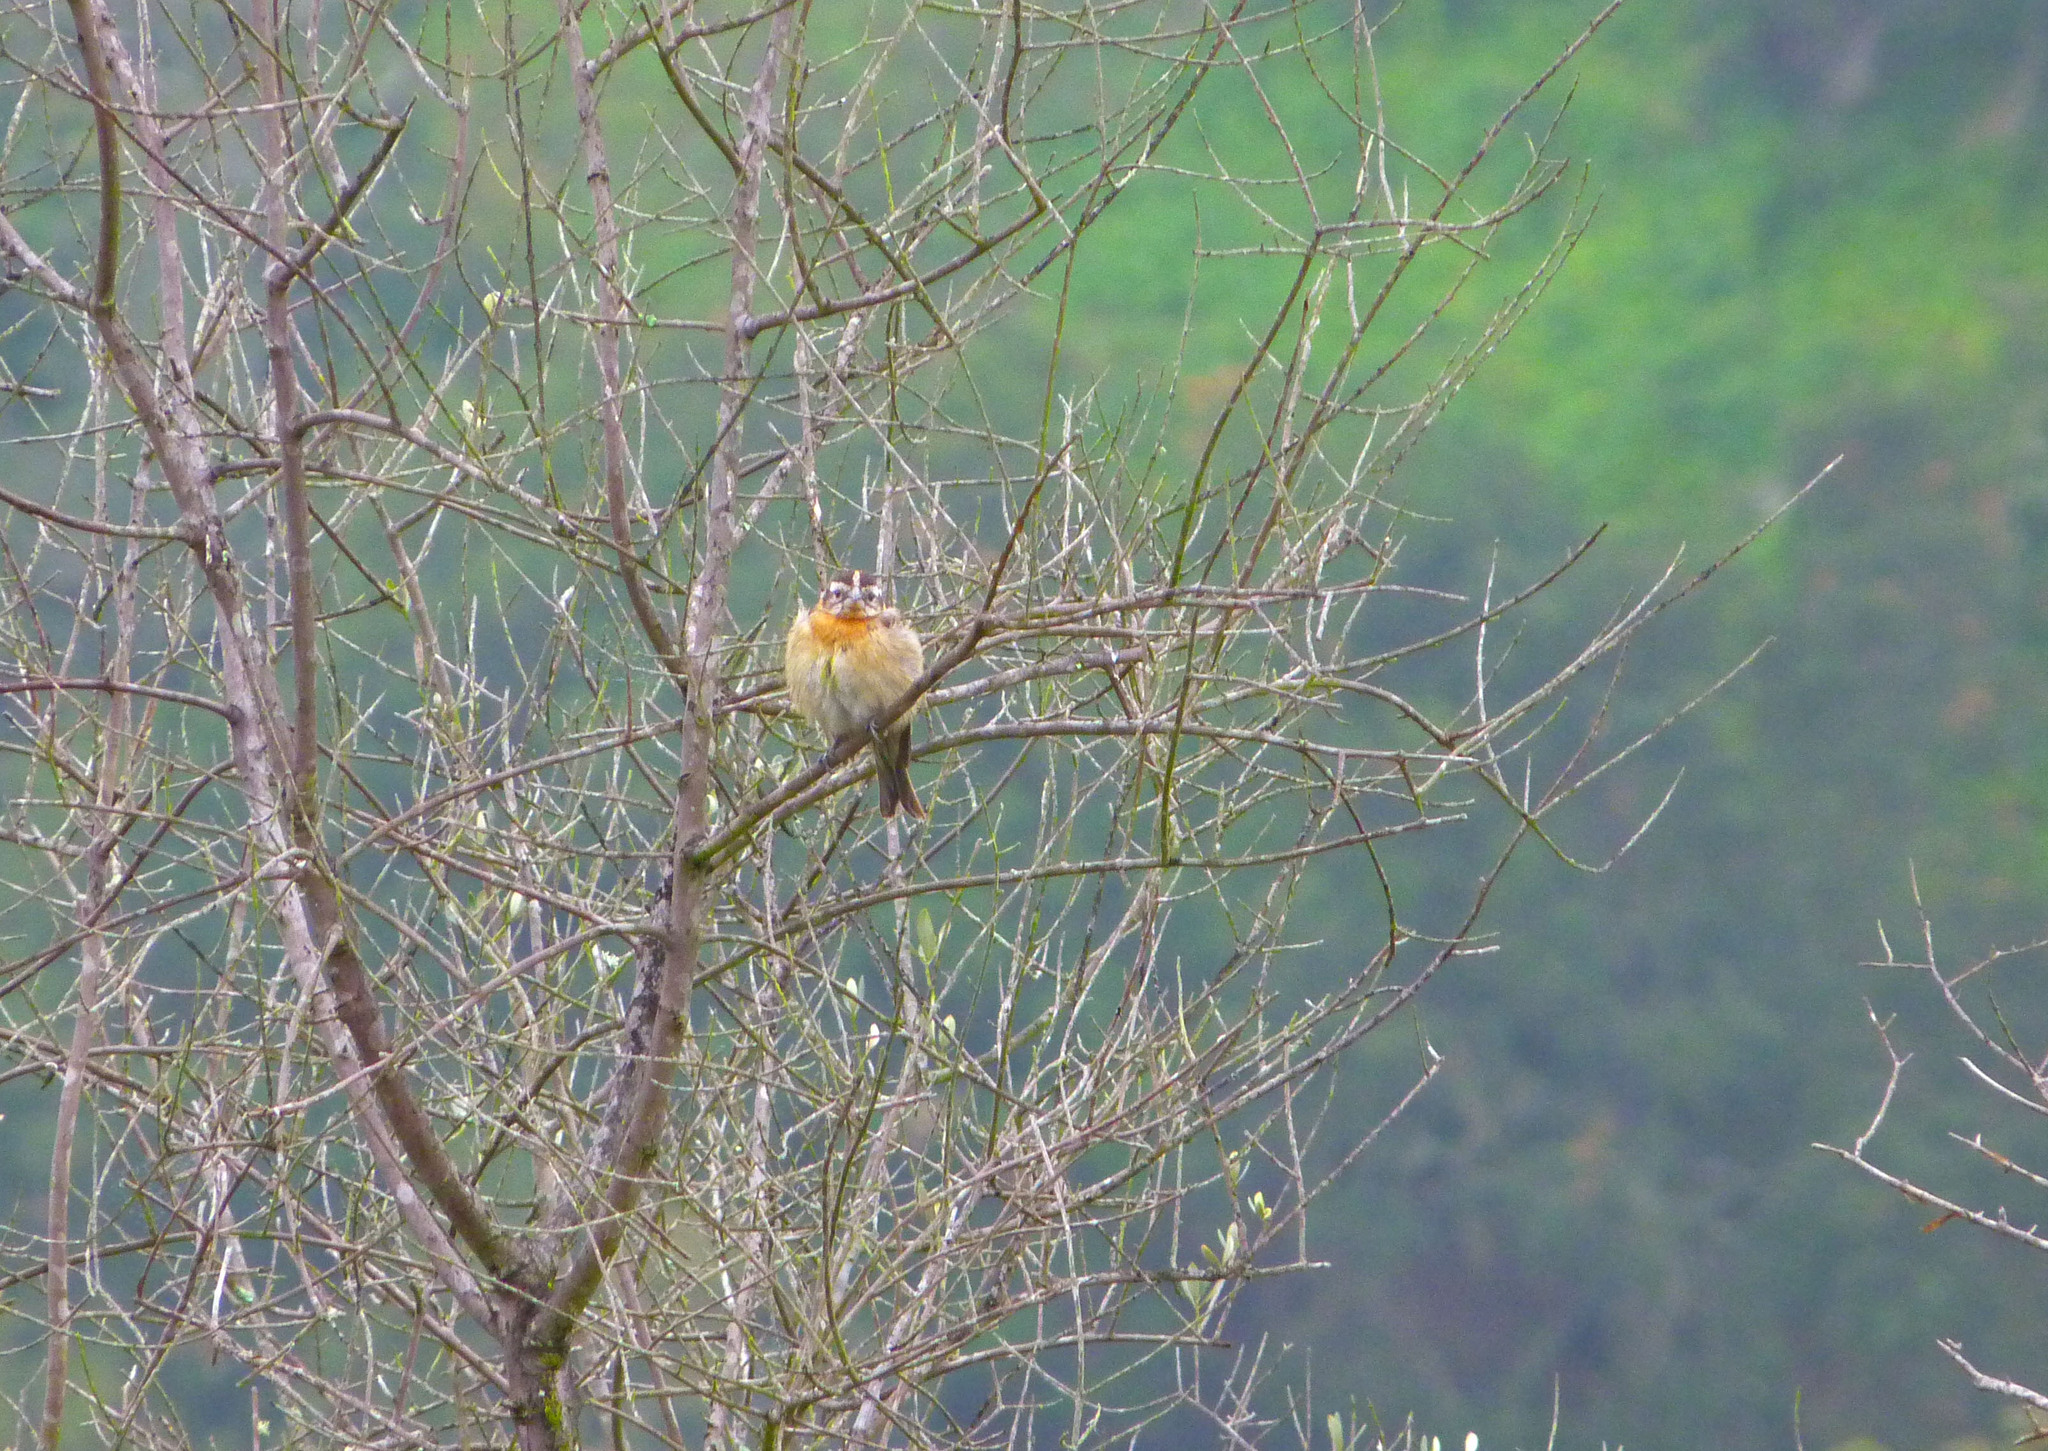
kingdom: Animalia
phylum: Chordata
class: Aves
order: Passeriformes
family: Cardinalidae
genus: Pheucticus
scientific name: Pheucticus melanocephalus
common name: Black-headed grosbeak
